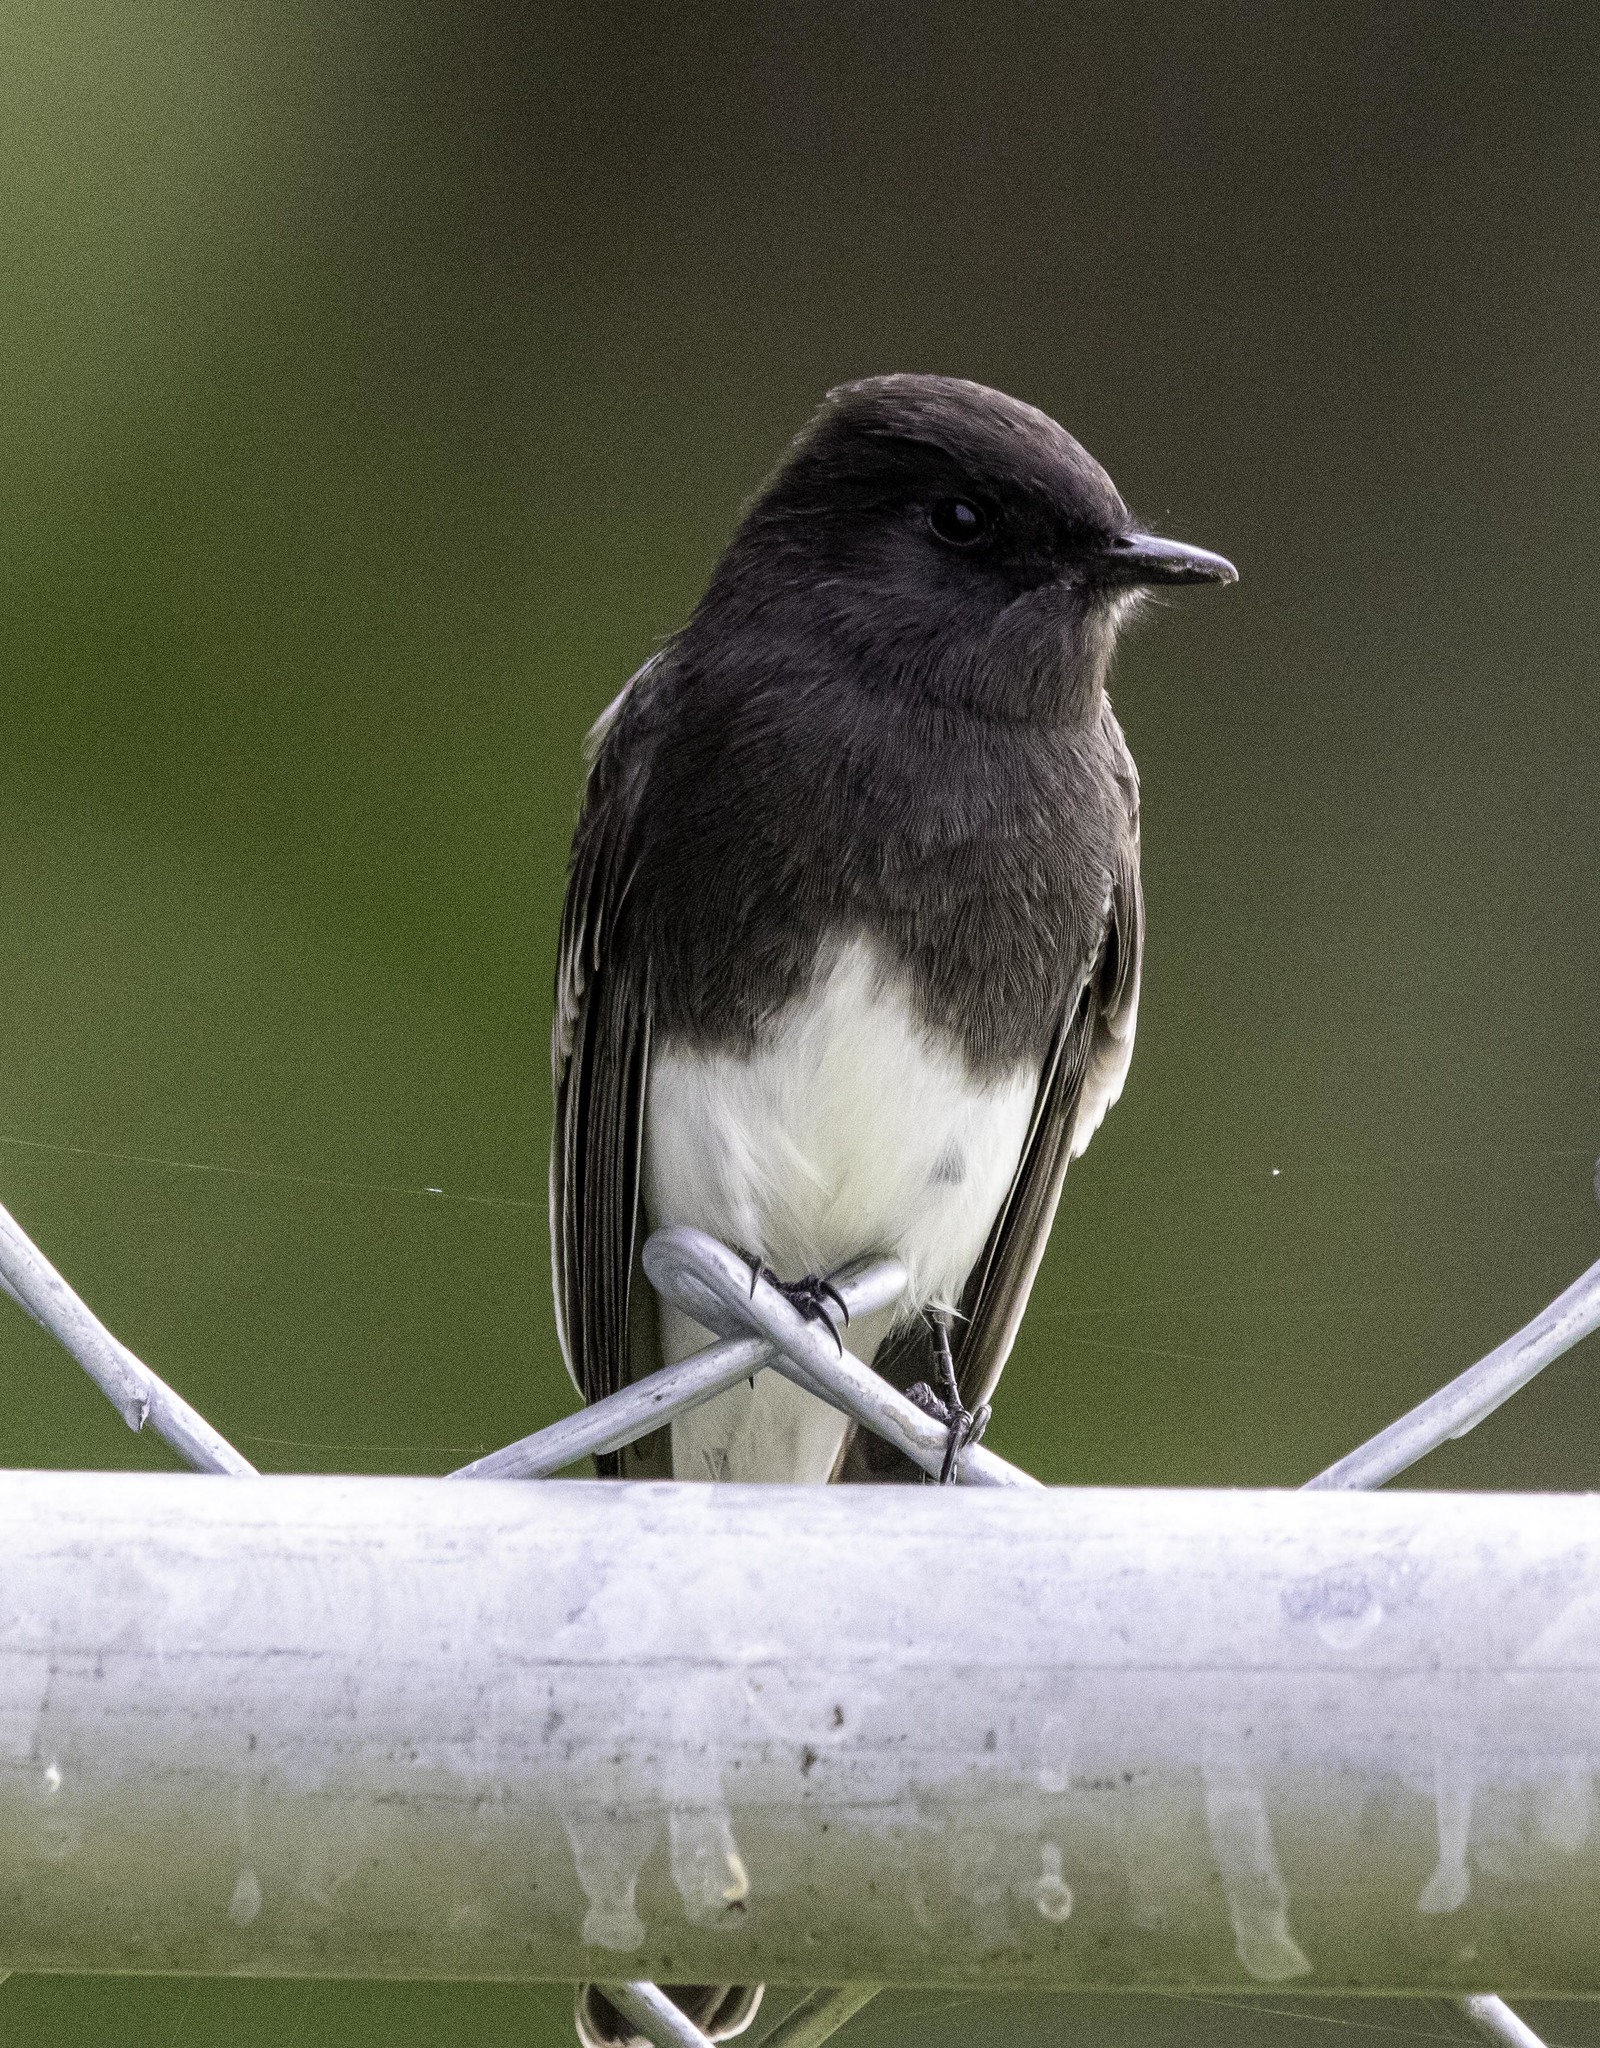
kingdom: Animalia
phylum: Chordata
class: Aves
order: Passeriformes
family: Tyrannidae
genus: Sayornis
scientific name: Sayornis nigricans
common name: Black phoebe
